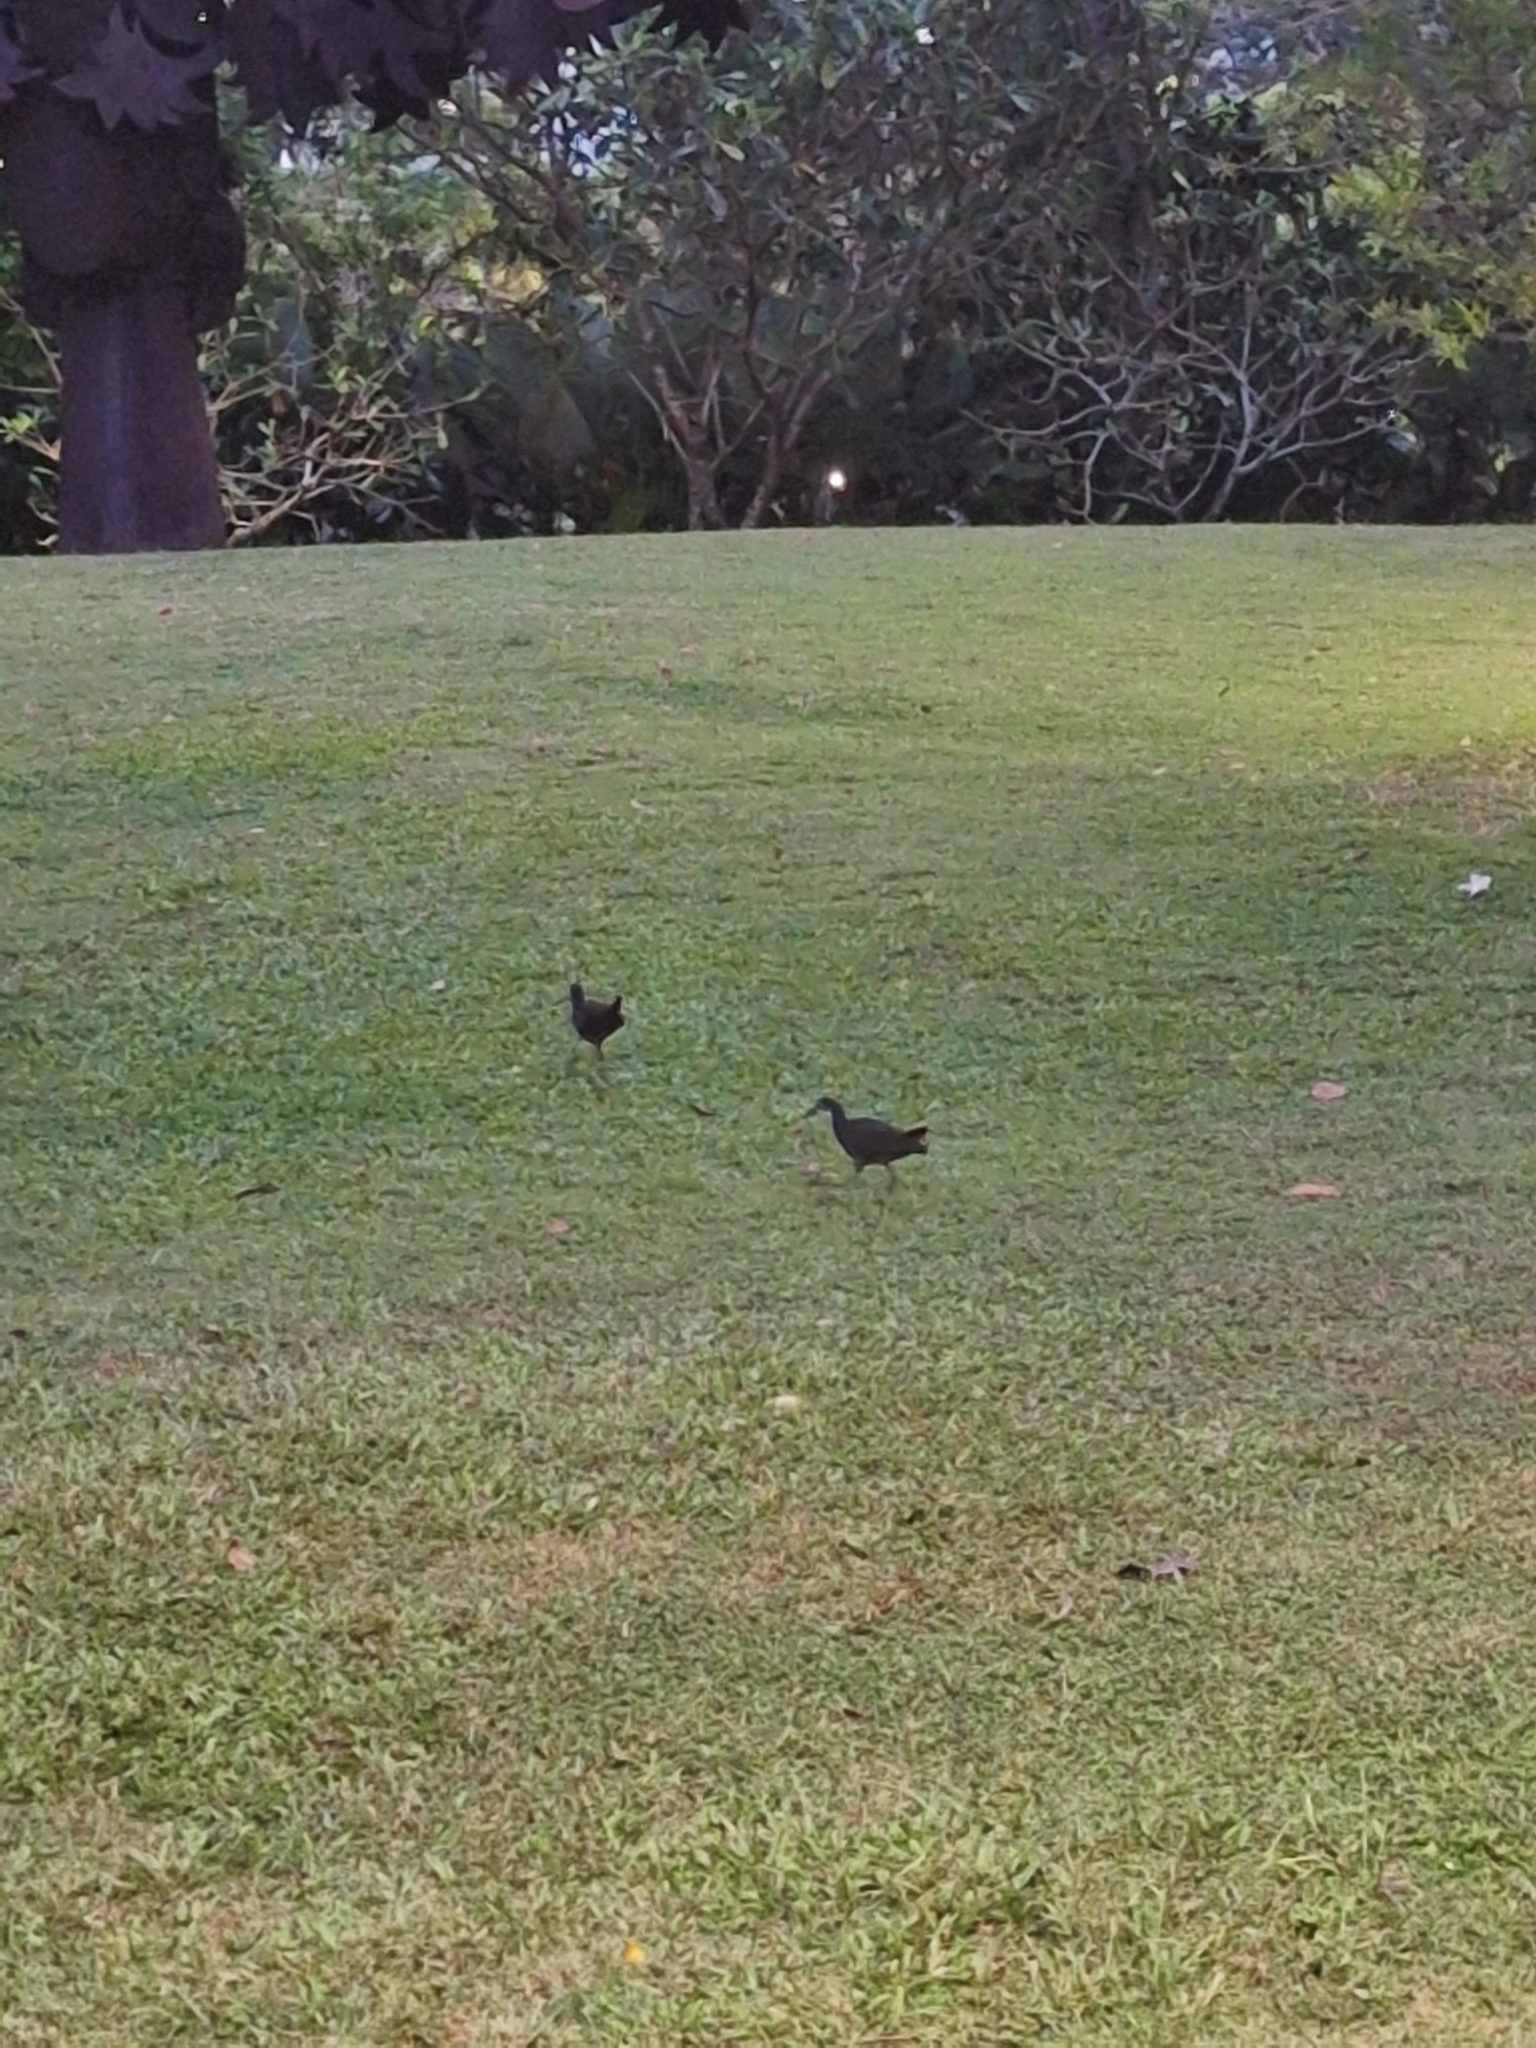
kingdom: Animalia
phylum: Chordata
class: Aves
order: Gruiformes
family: Rallidae
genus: Amaurornis
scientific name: Amaurornis phoenicurus
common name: White-breasted waterhen
